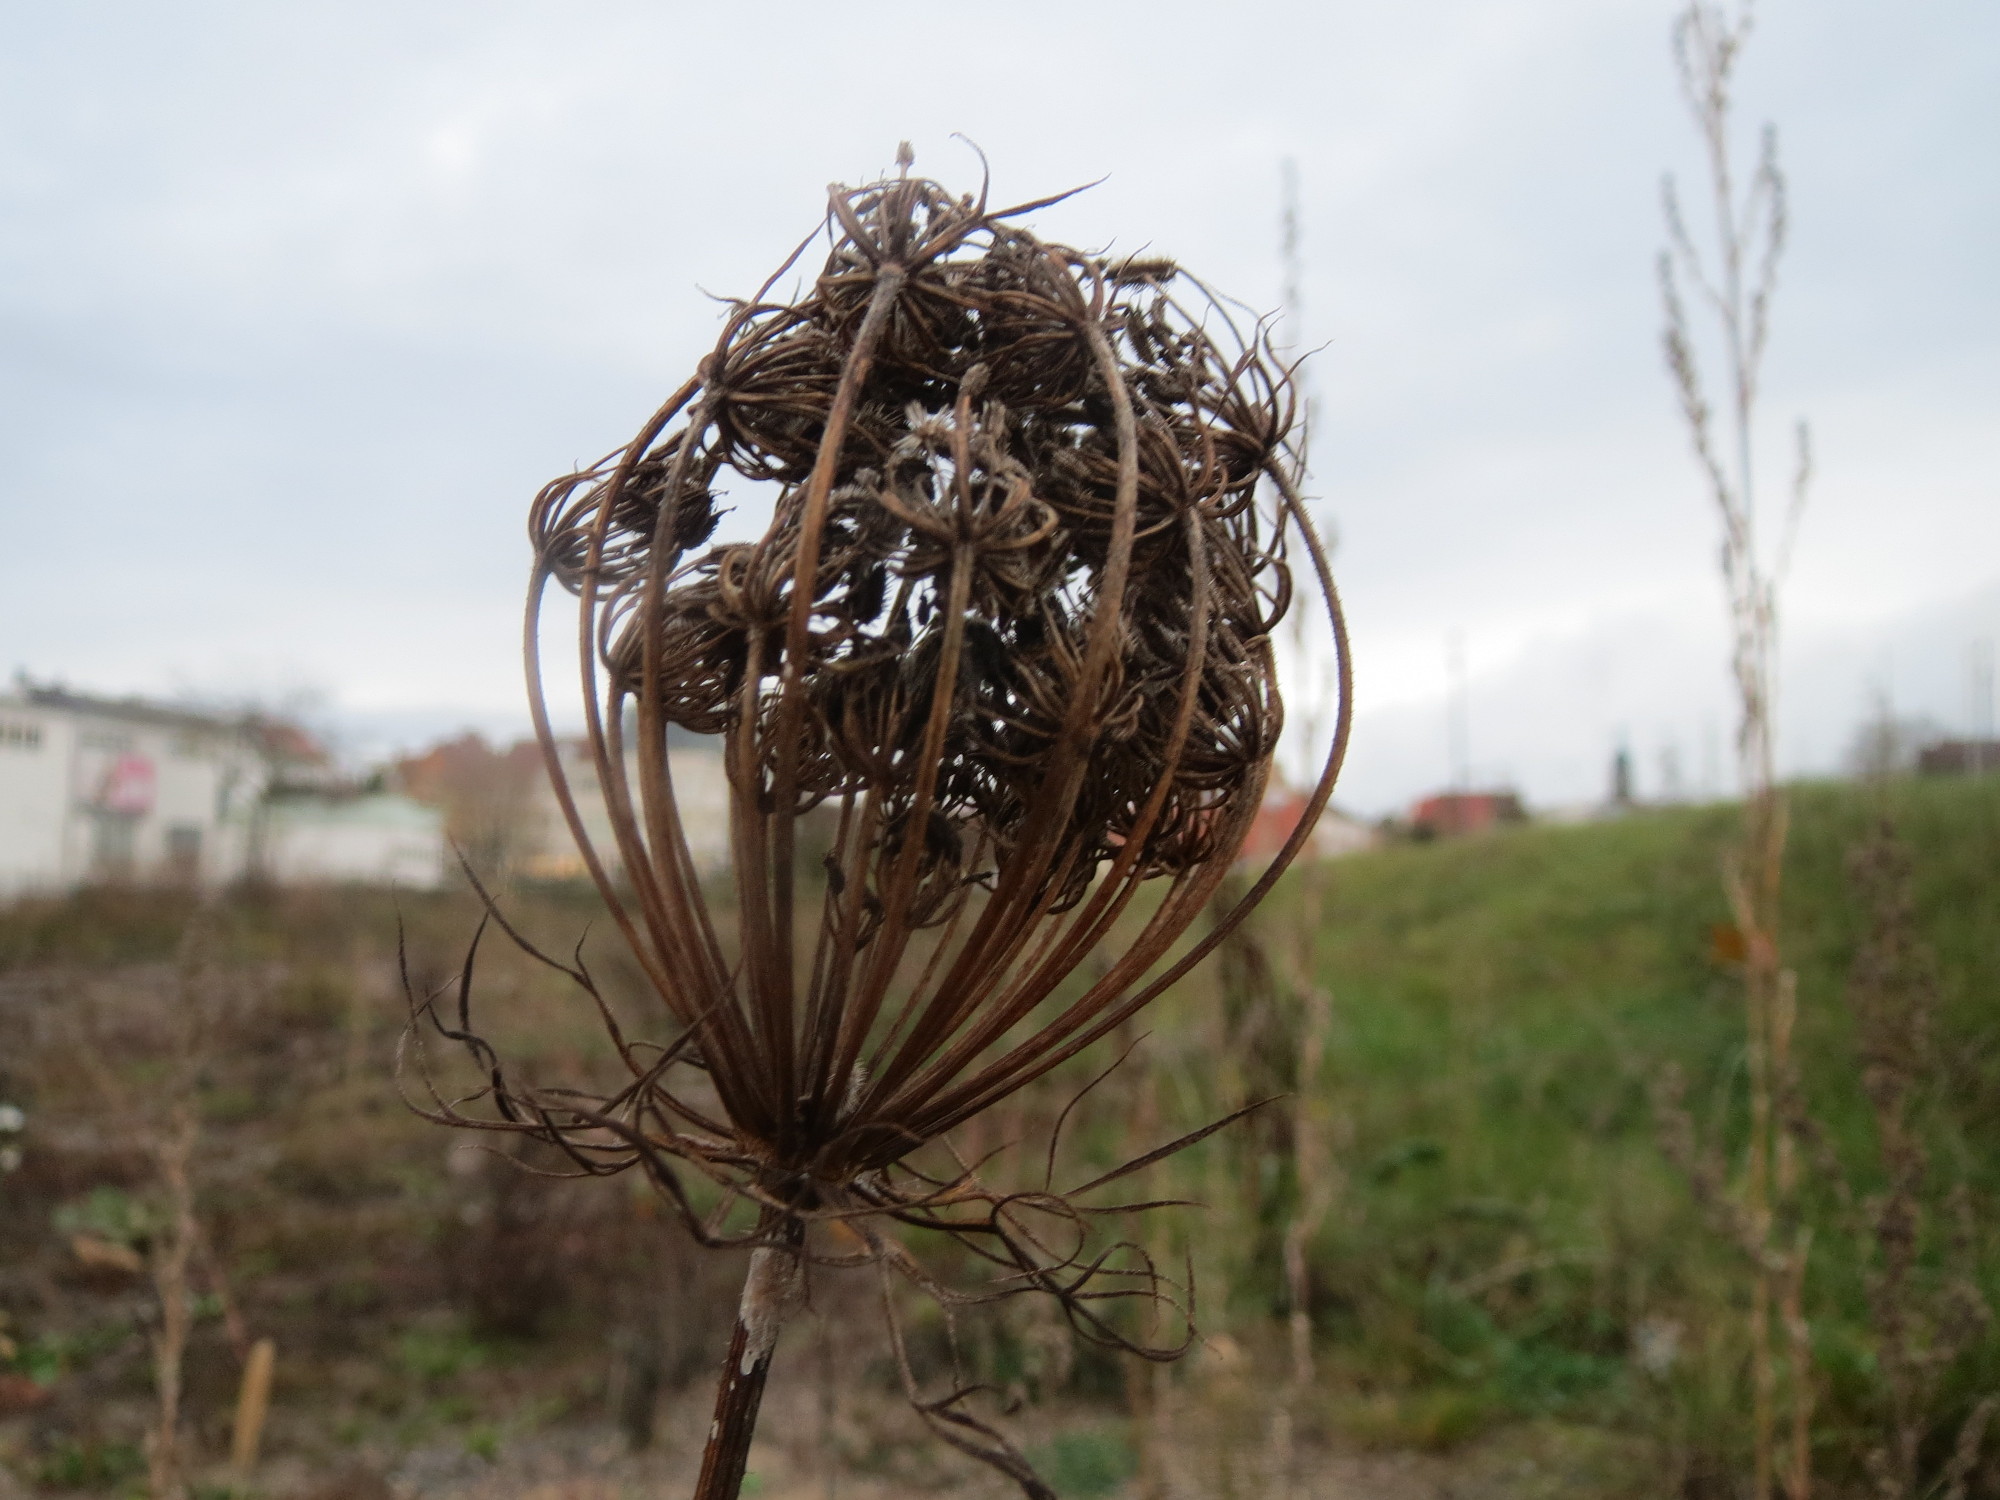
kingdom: Plantae
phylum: Tracheophyta
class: Magnoliopsida
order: Apiales
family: Apiaceae
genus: Daucus
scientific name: Daucus carota
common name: Wild carrot
